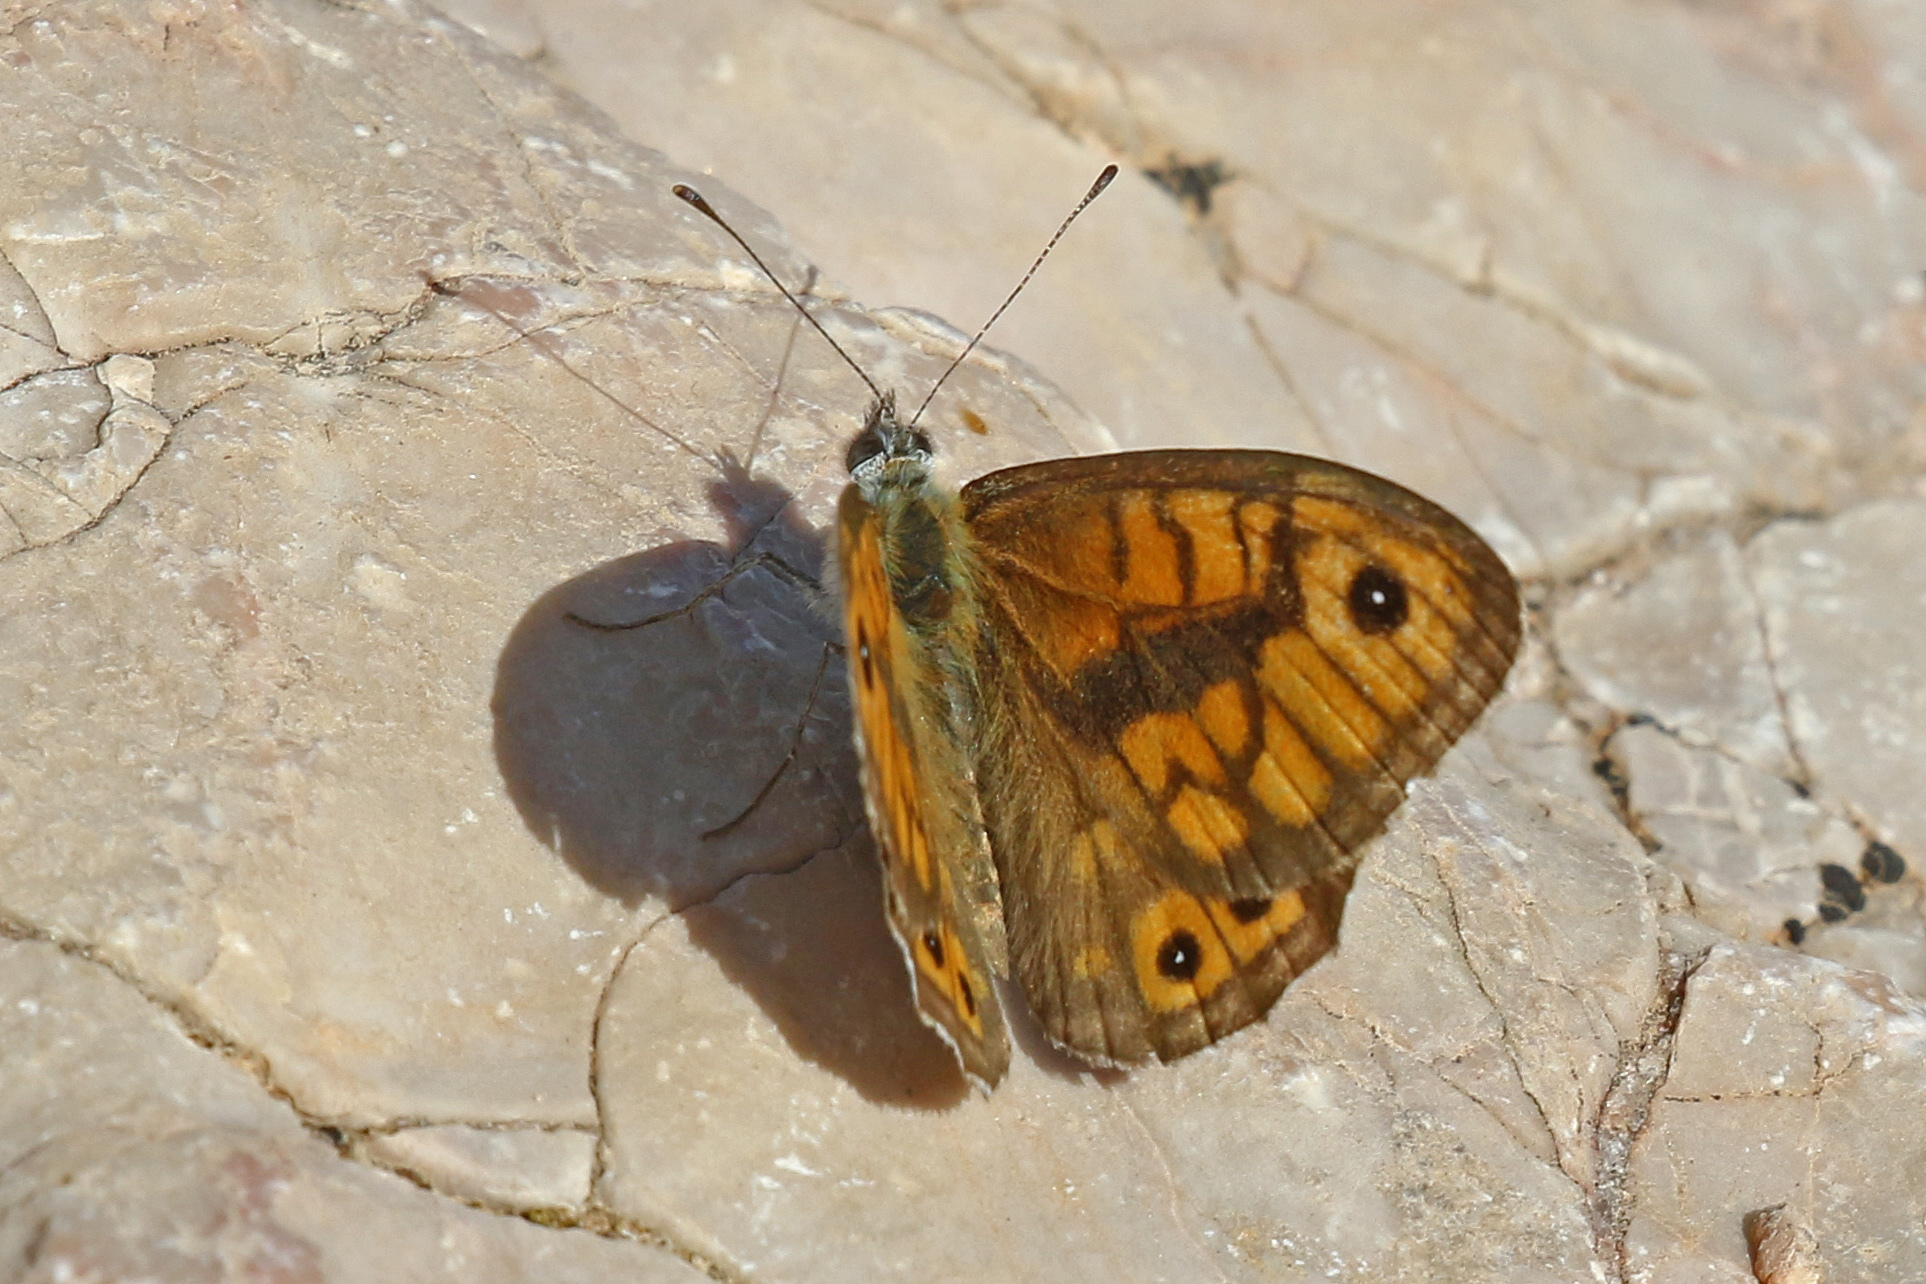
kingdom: Animalia
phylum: Arthropoda
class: Insecta
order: Lepidoptera
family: Nymphalidae
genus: Pararge
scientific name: Pararge Lasiommata megera
